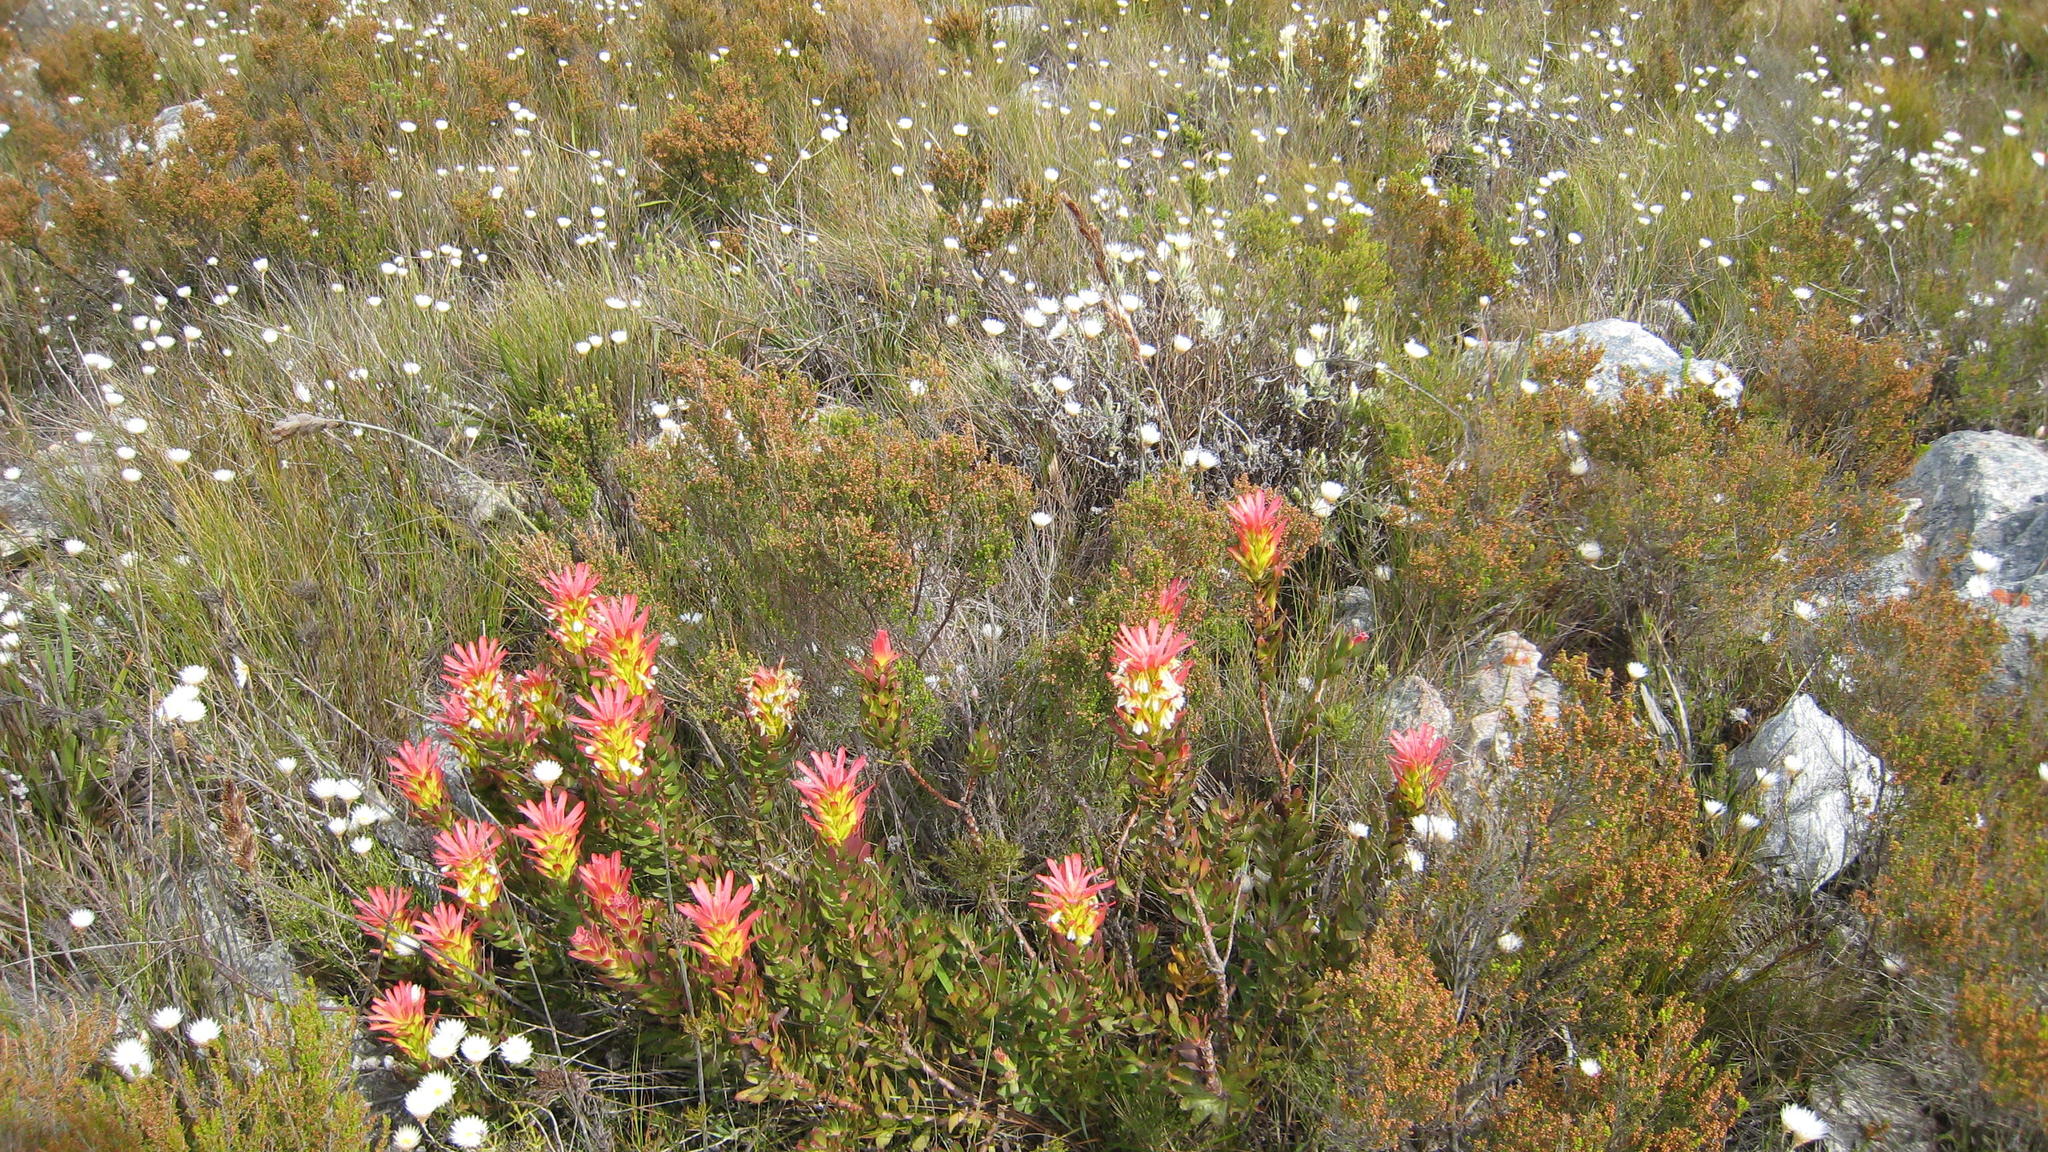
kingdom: Plantae
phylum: Tracheophyta
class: Magnoliopsida
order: Proteales
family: Proteaceae
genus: Mimetes
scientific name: Mimetes cucullatus
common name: Common pagoda
